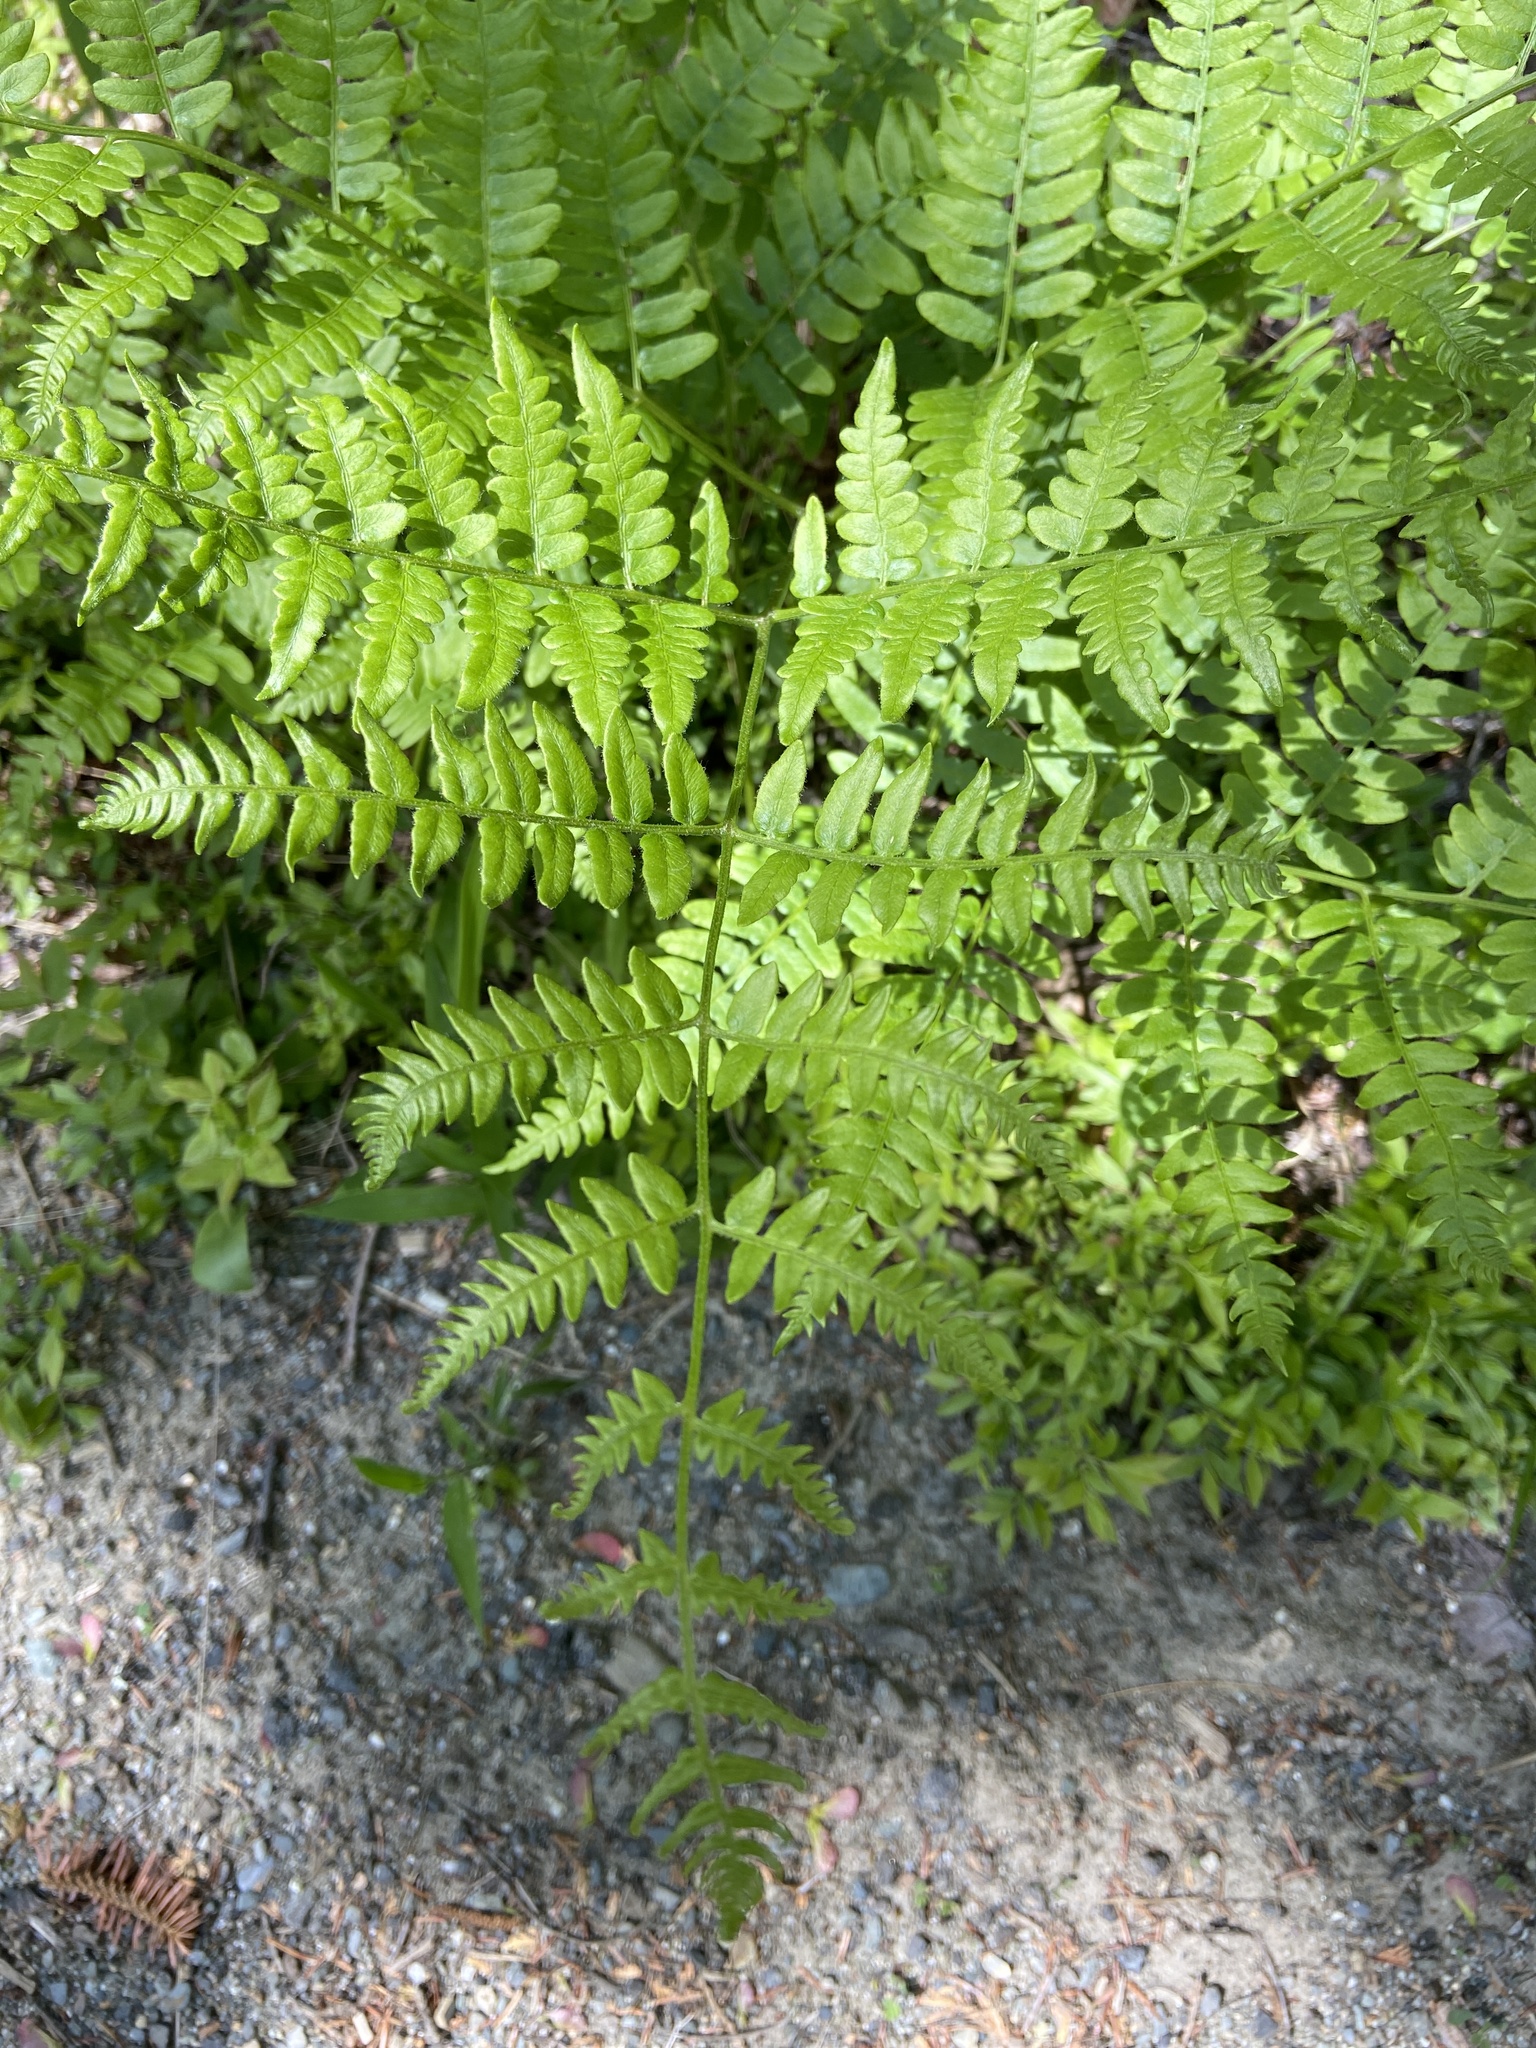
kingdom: Plantae
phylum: Tracheophyta
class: Polypodiopsida
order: Polypodiales
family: Dennstaedtiaceae
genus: Pteridium
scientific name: Pteridium aquilinum
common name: Bracken
